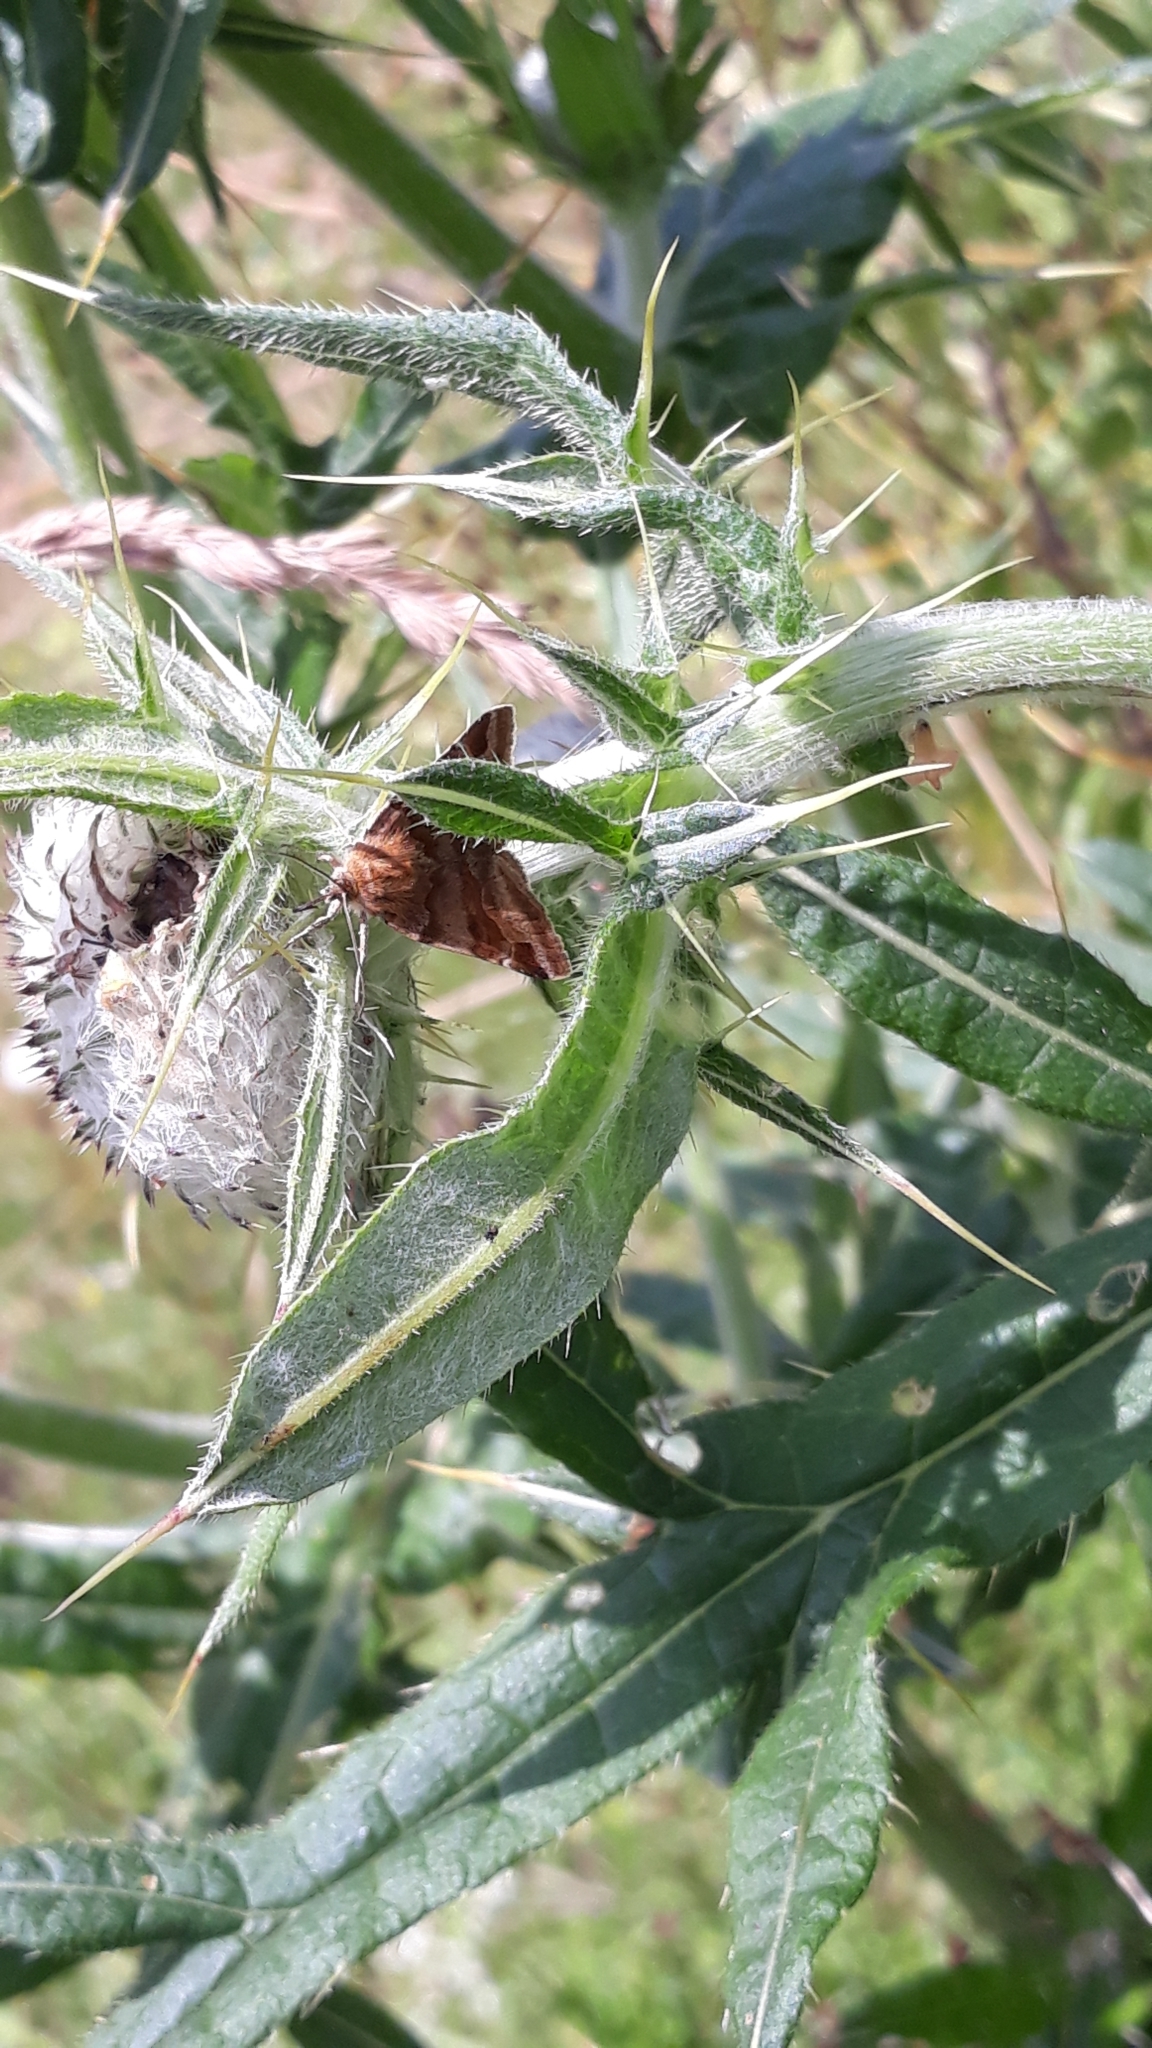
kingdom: Animalia
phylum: Arthropoda
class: Insecta
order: Lepidoptera
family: Erebidae
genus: Euclidia
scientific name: Euclidia glyphica
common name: Burnet companion
